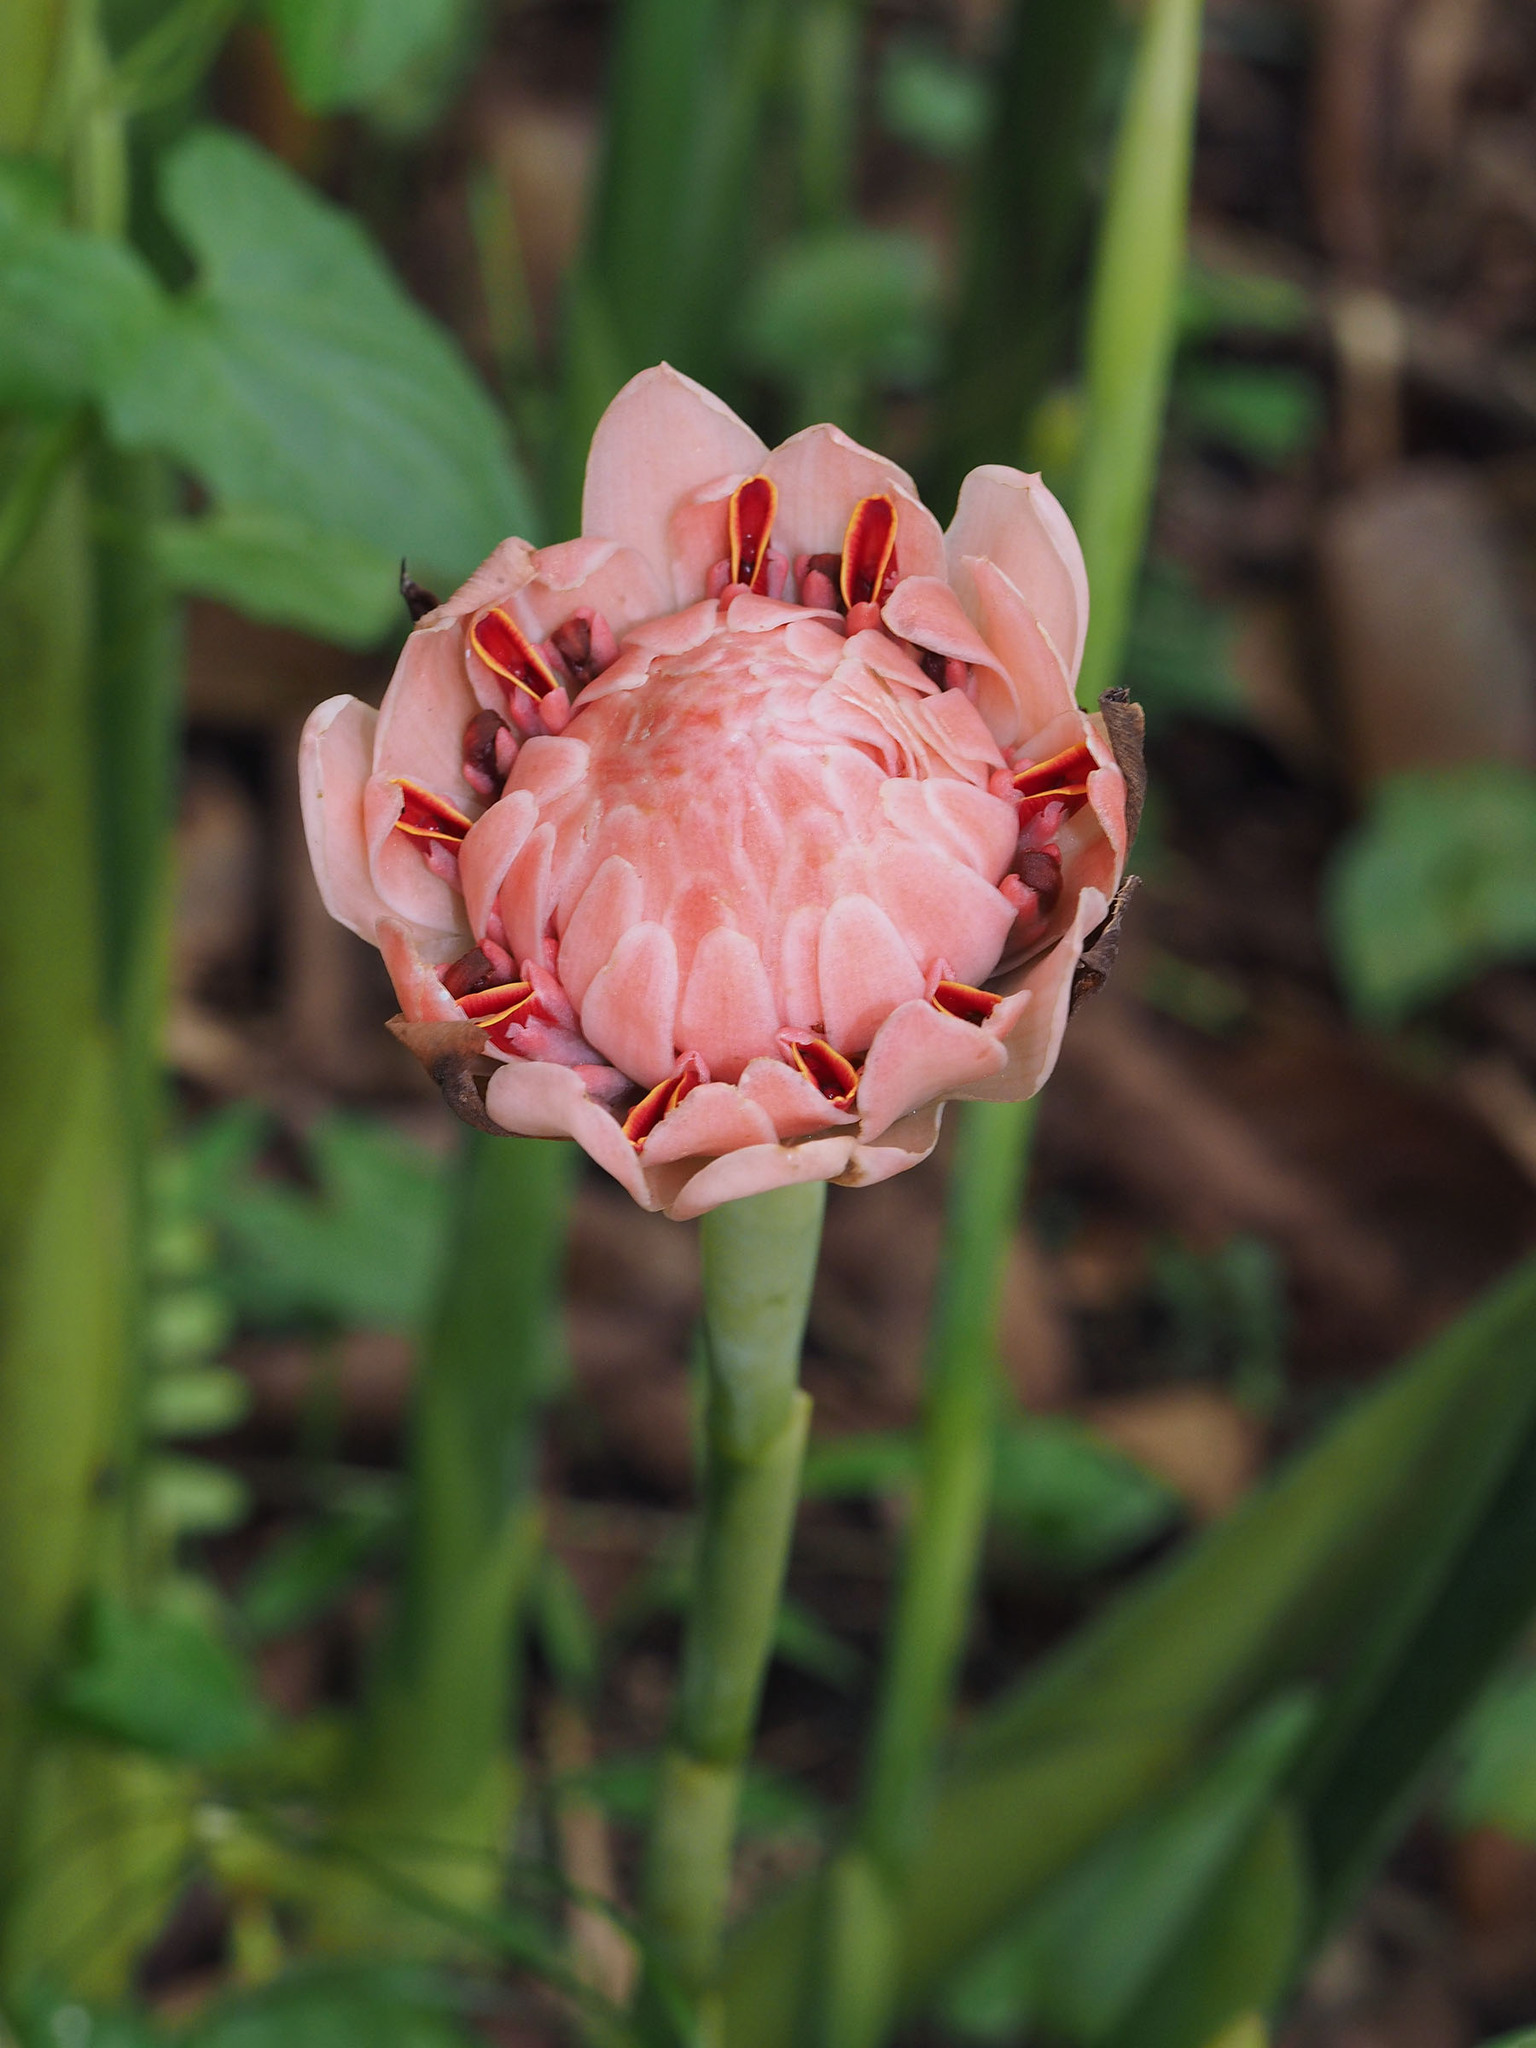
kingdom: Plantae
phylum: Tracheophyta
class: Liliopsida
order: Zingiberales
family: Zingiberaceae
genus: Etlingera
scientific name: Etlingera elatior
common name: Philippine waxflower
